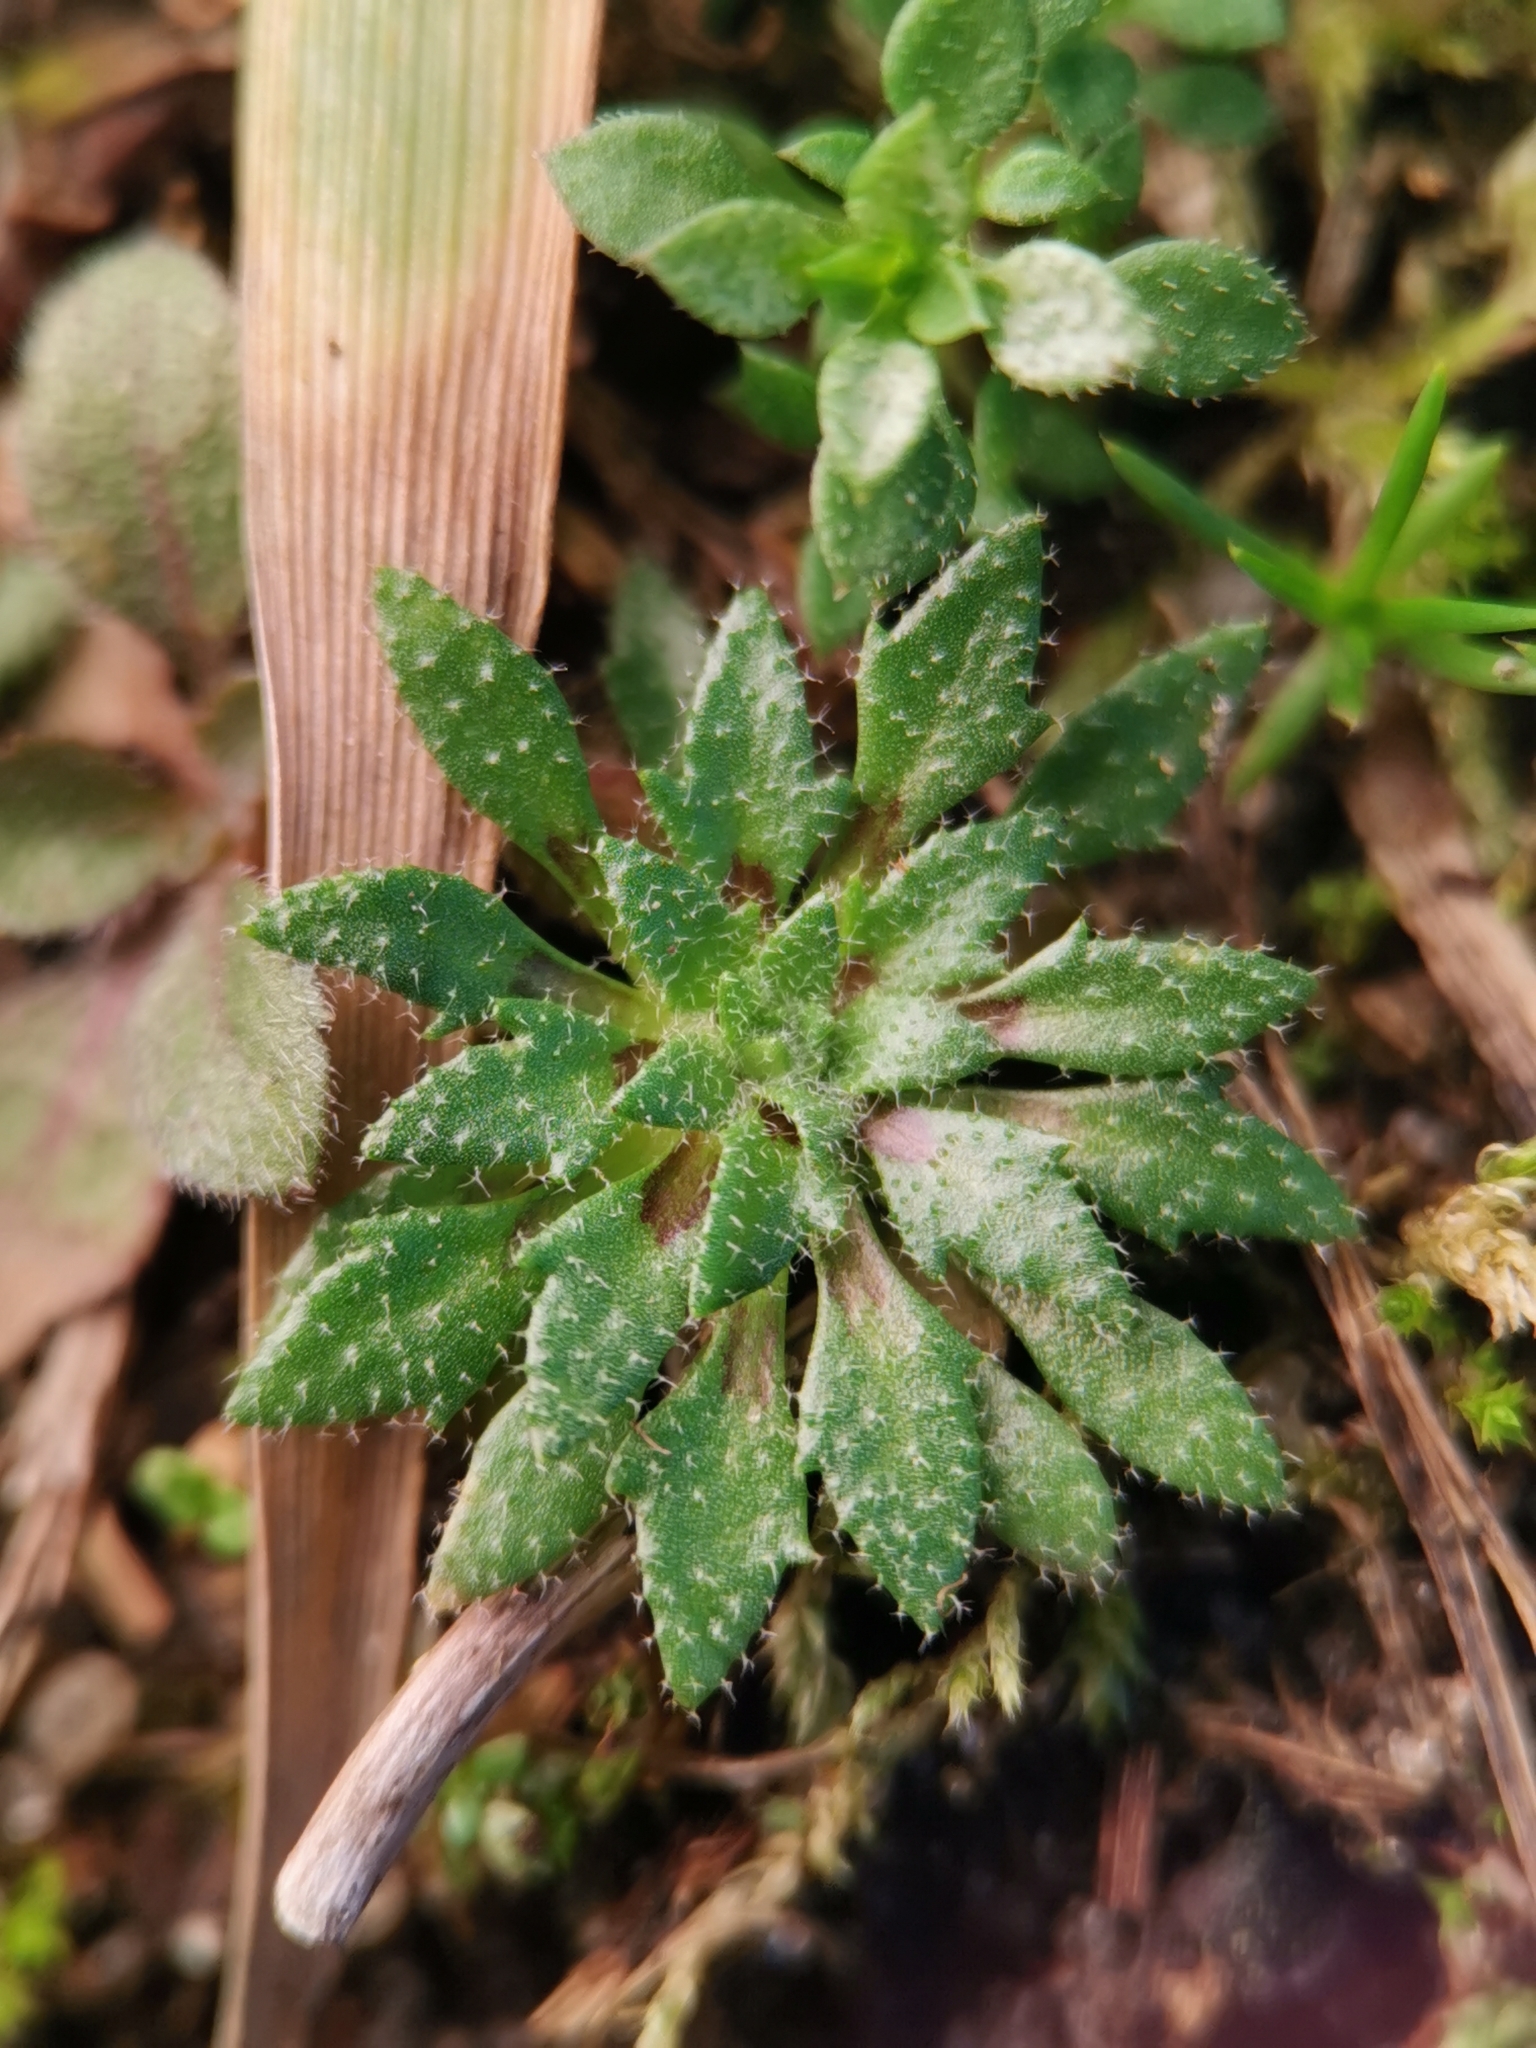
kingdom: Plantae
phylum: Tracheophyta
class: Magnoliopsida
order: Brassicales
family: Brassicaceae
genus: Draba
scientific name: Draba verna
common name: Spring draba
